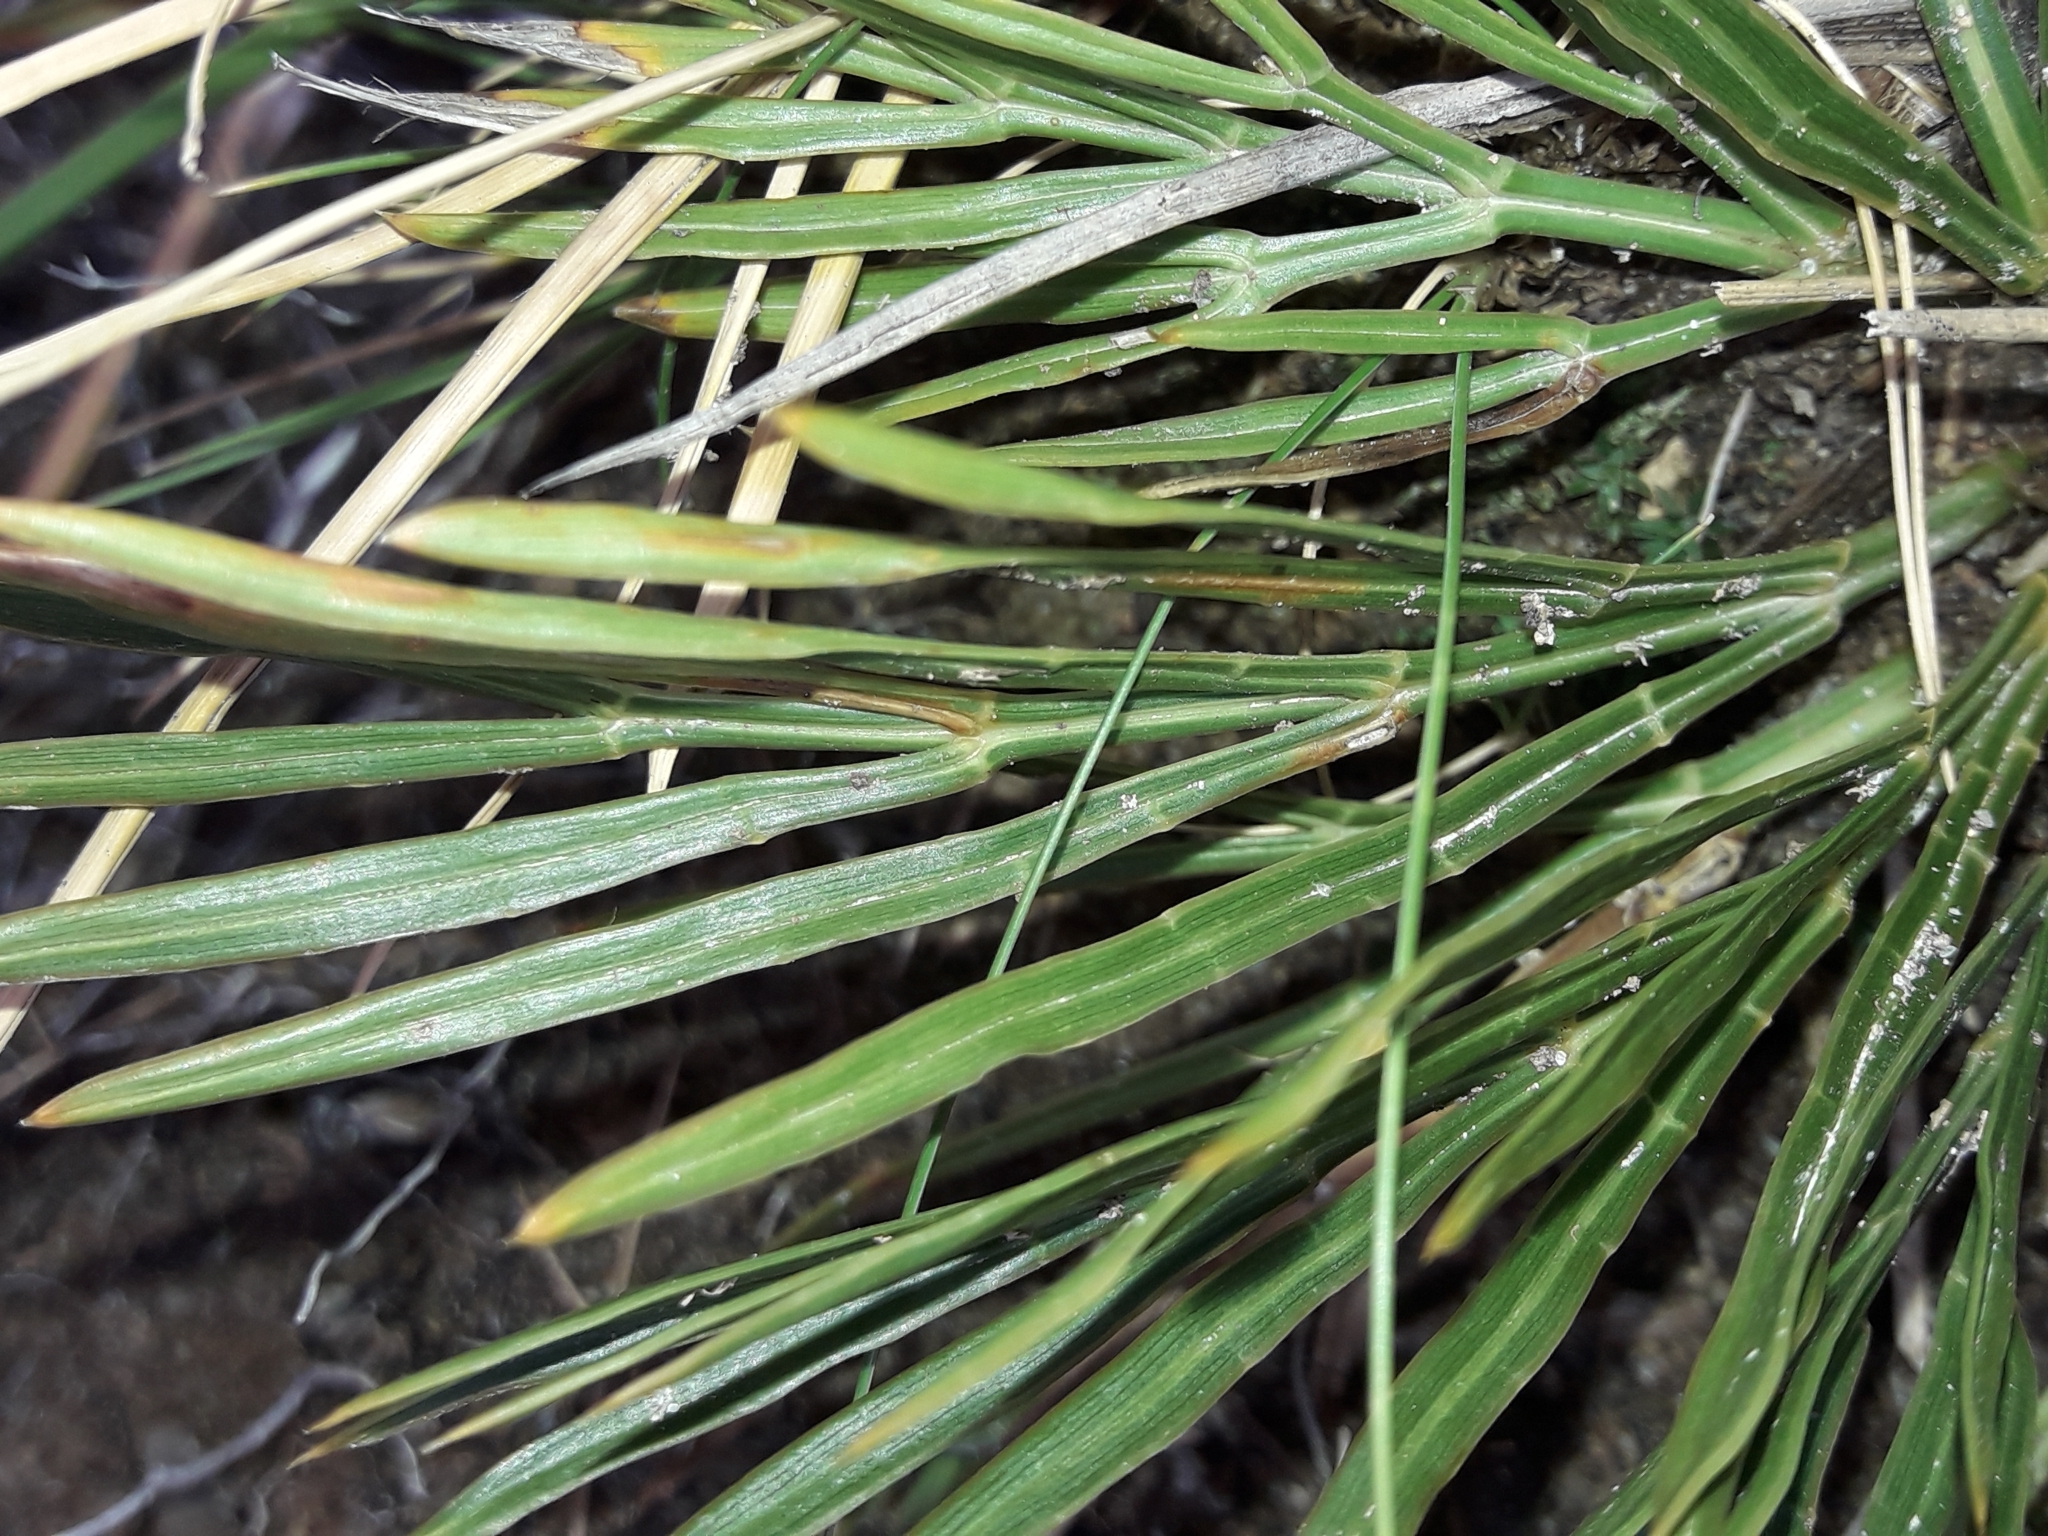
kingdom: Plantae
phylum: Tracheophyta
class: Magnoliopsida
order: Apiales
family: Apiaceae
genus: Aciphylla
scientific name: Aciphylla divisa
